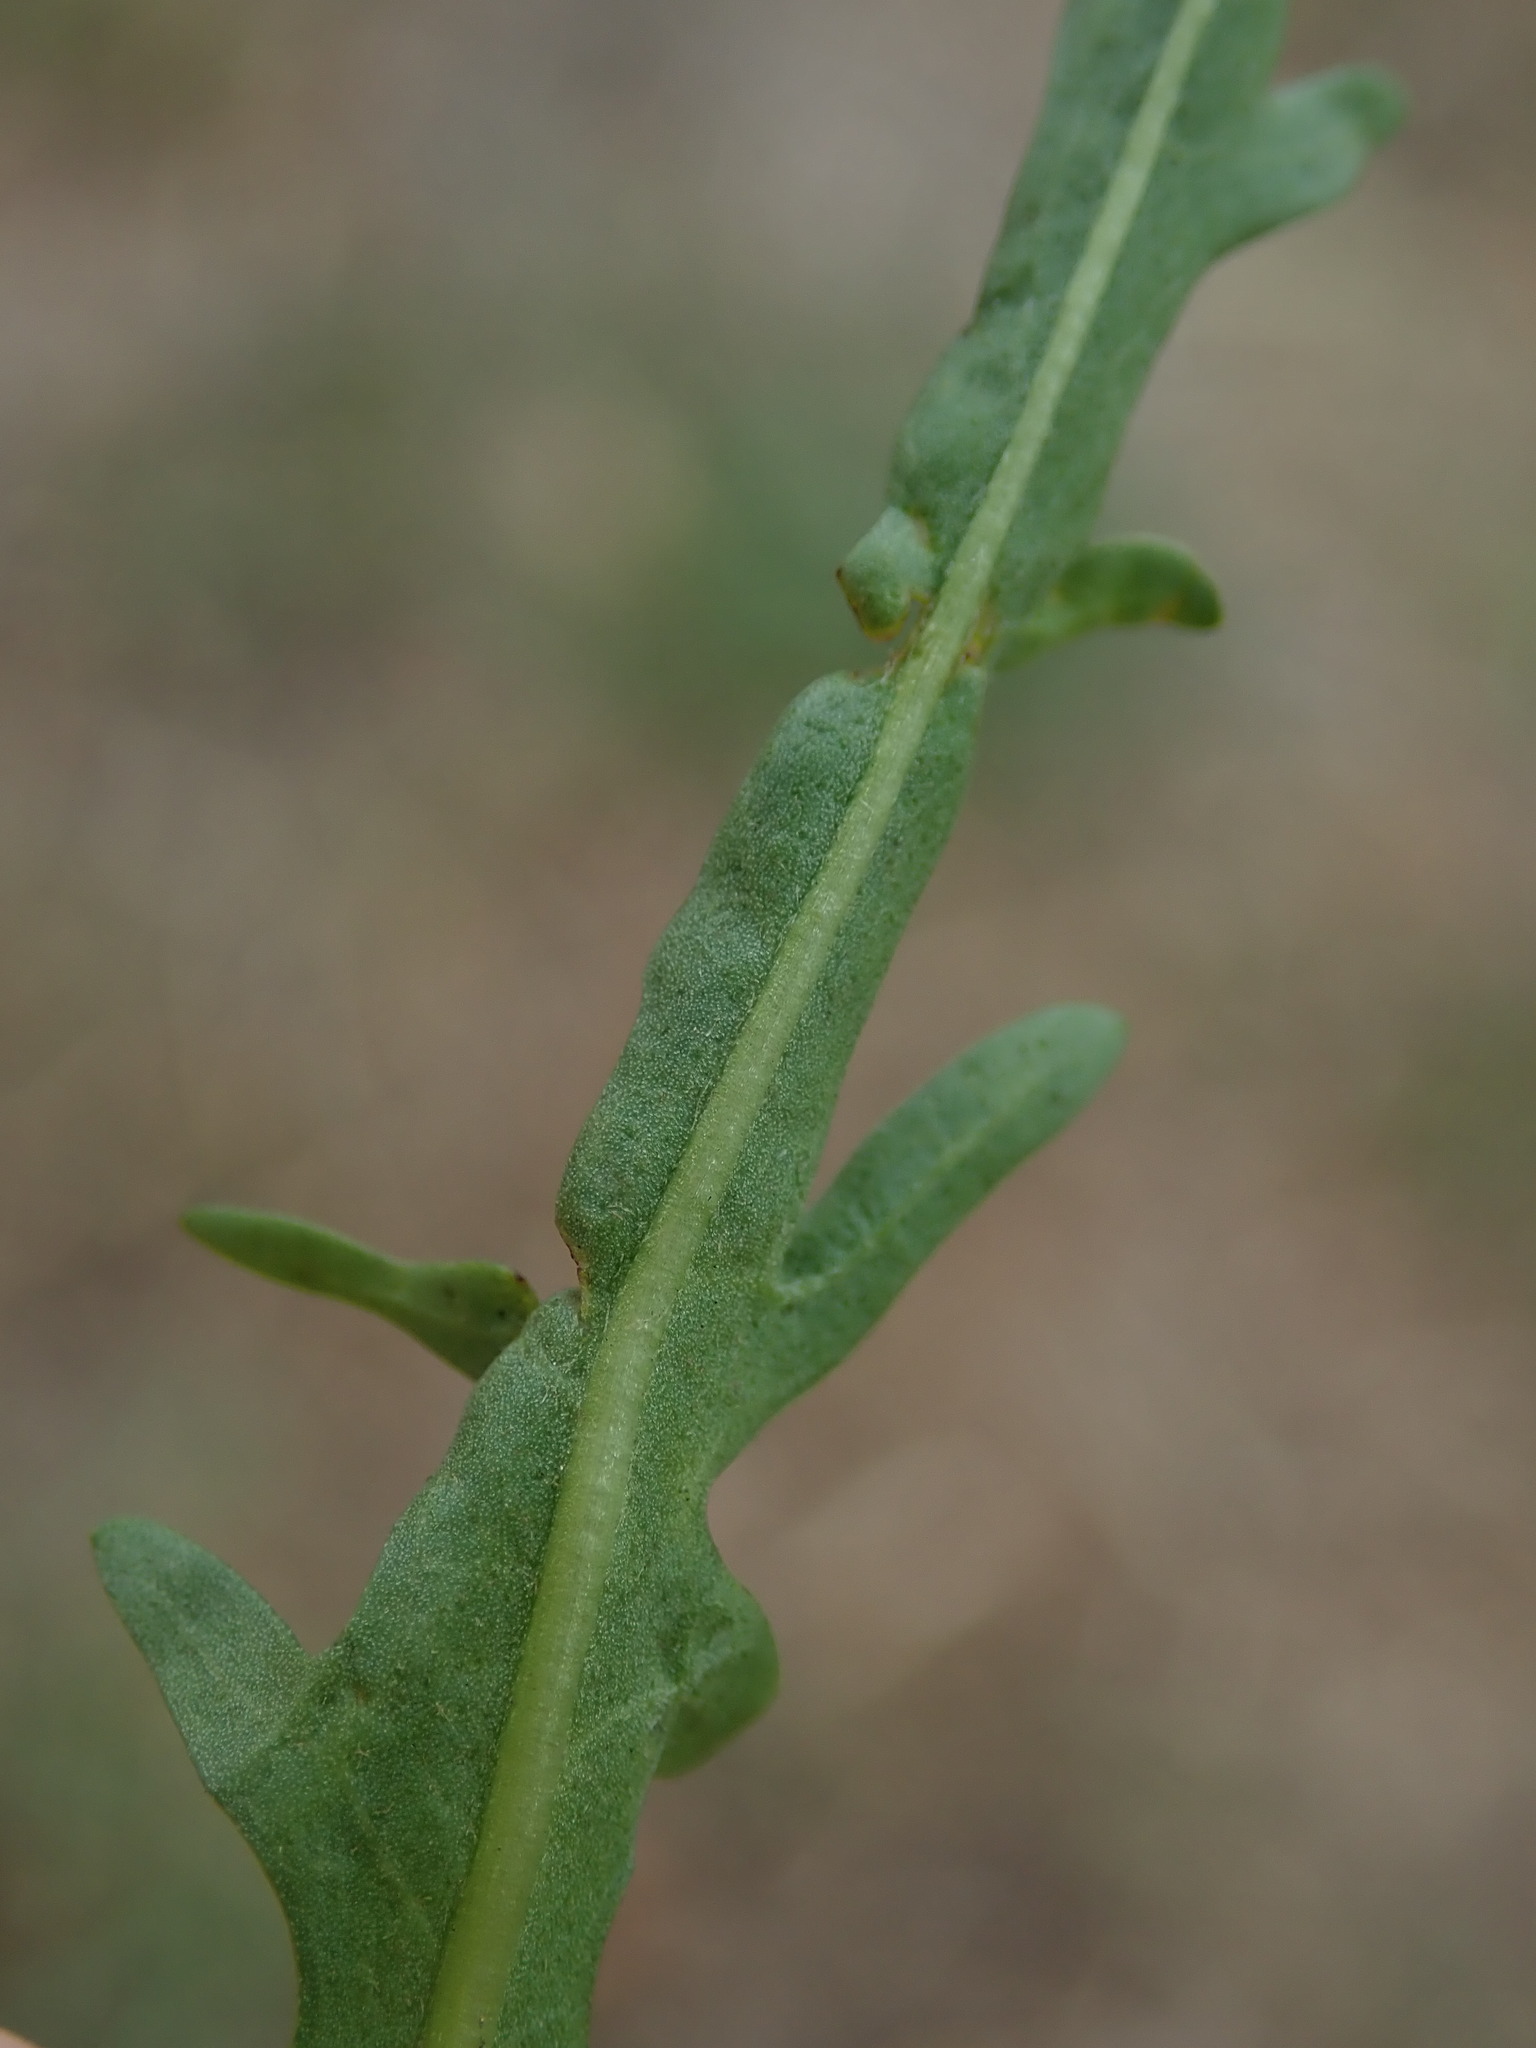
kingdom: Plantae
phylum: Tracheophyta
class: Magnoliopsida
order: Asterales
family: Asteraceae
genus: Scorzoneroides
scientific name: Scorzoneroides autumnalis
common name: Autumn hawkbit
